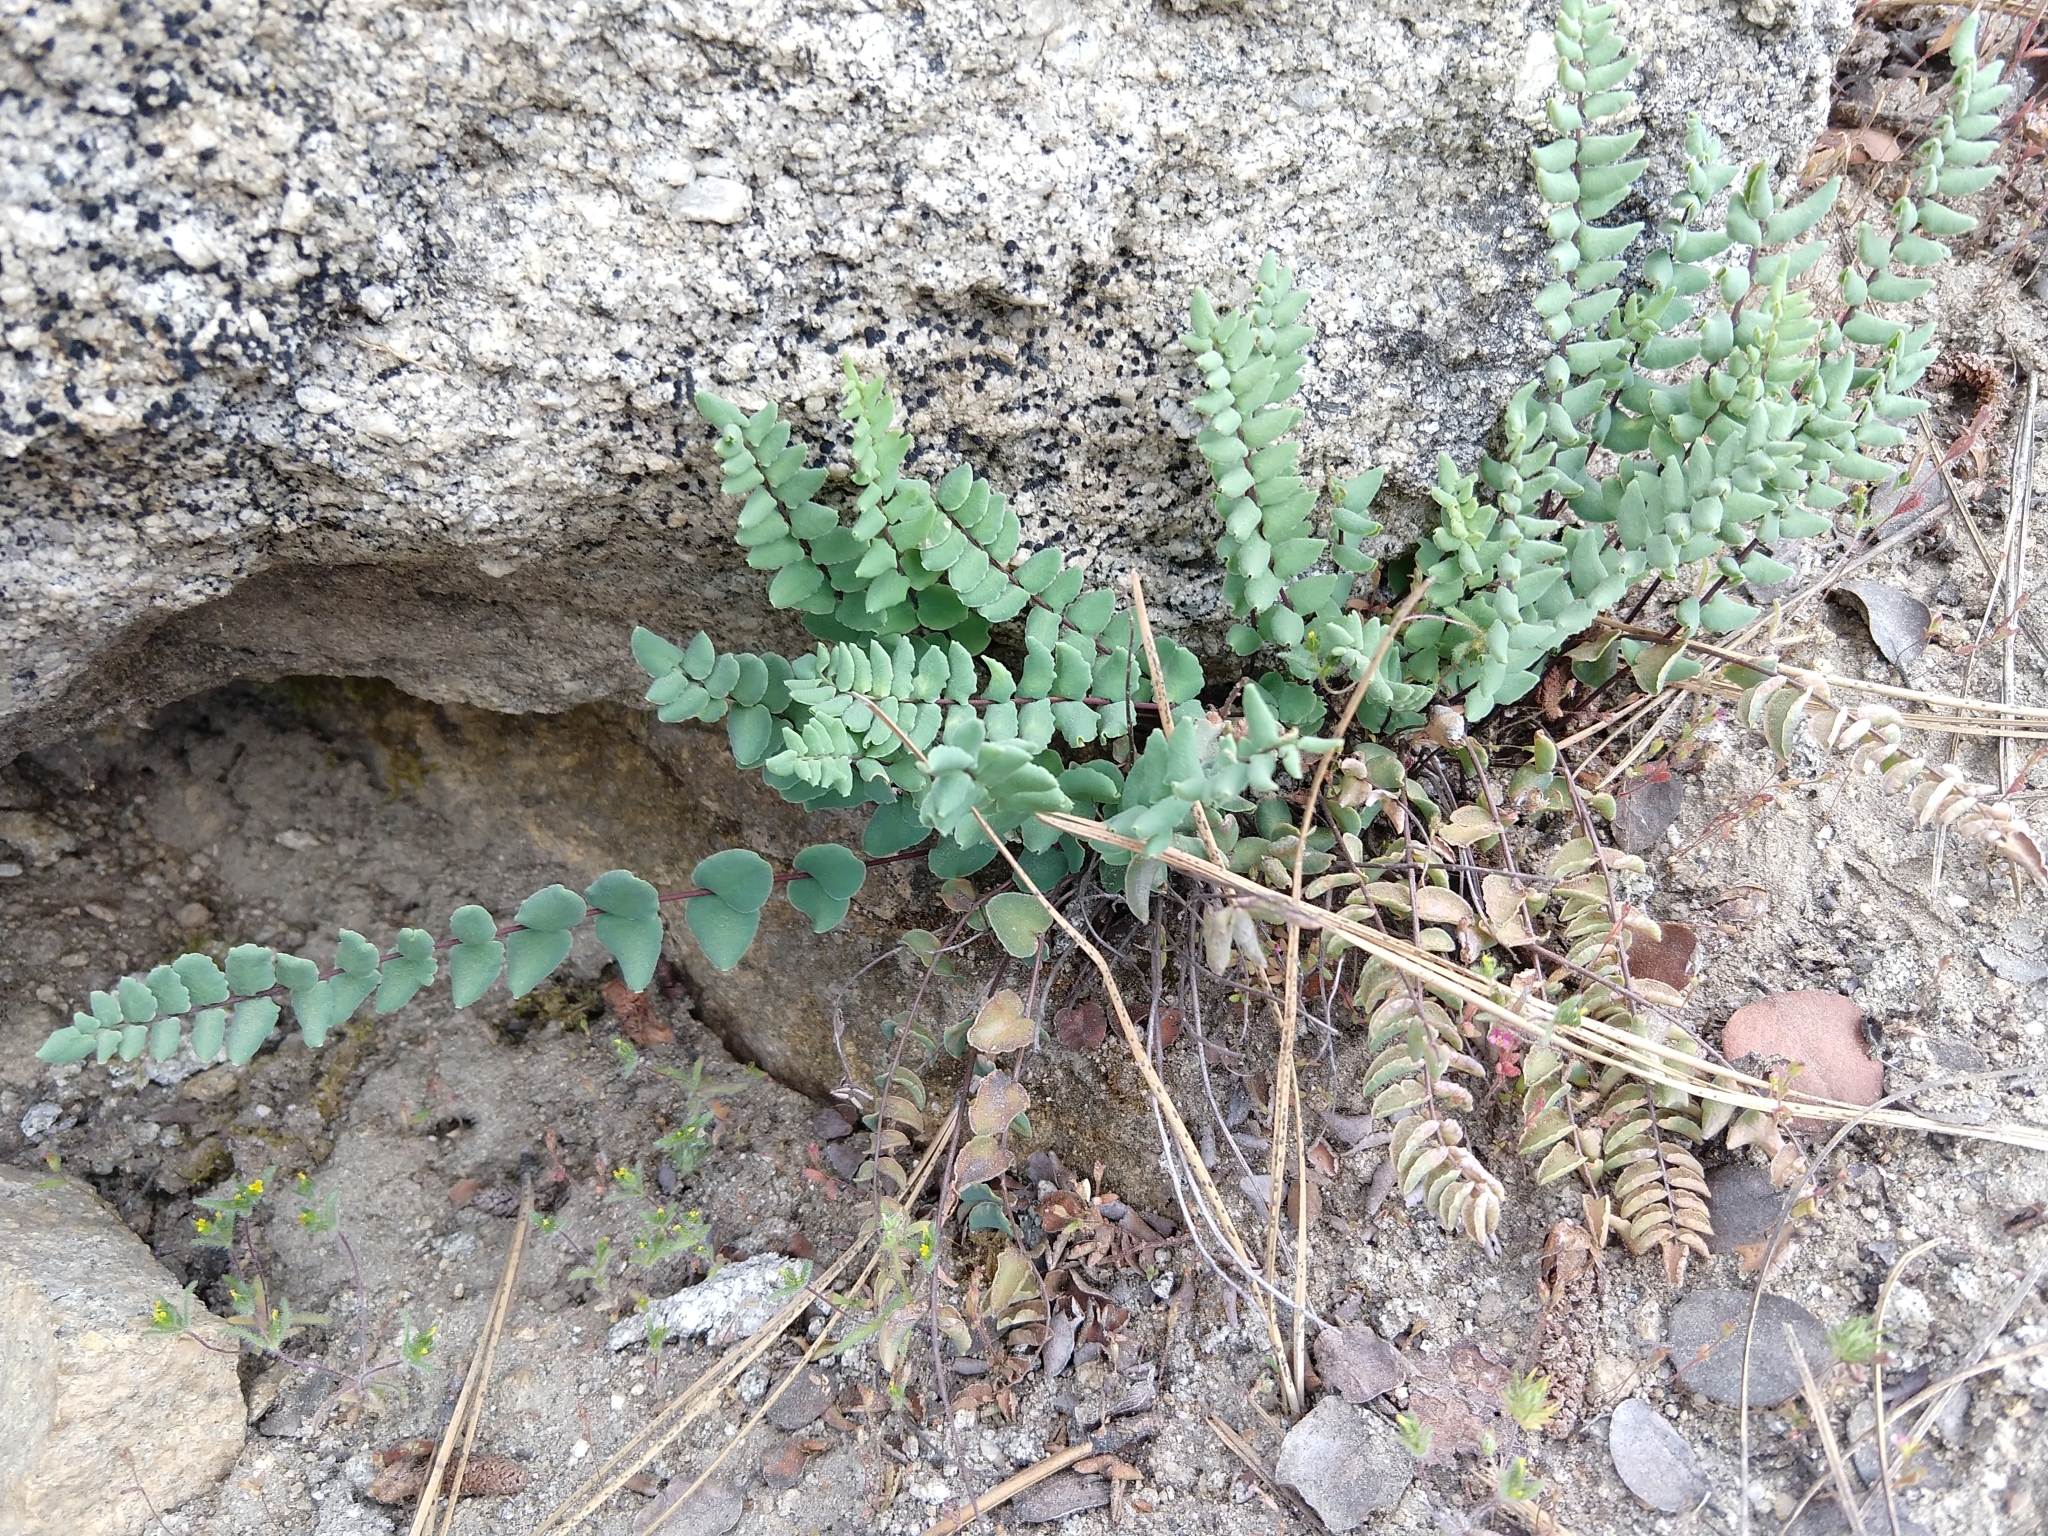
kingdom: Plantae
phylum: Tracheophyta
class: Polypodiopsida
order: Polypodiales
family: Pteridaceae
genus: Pellaea
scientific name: Pellaea bridgesii
